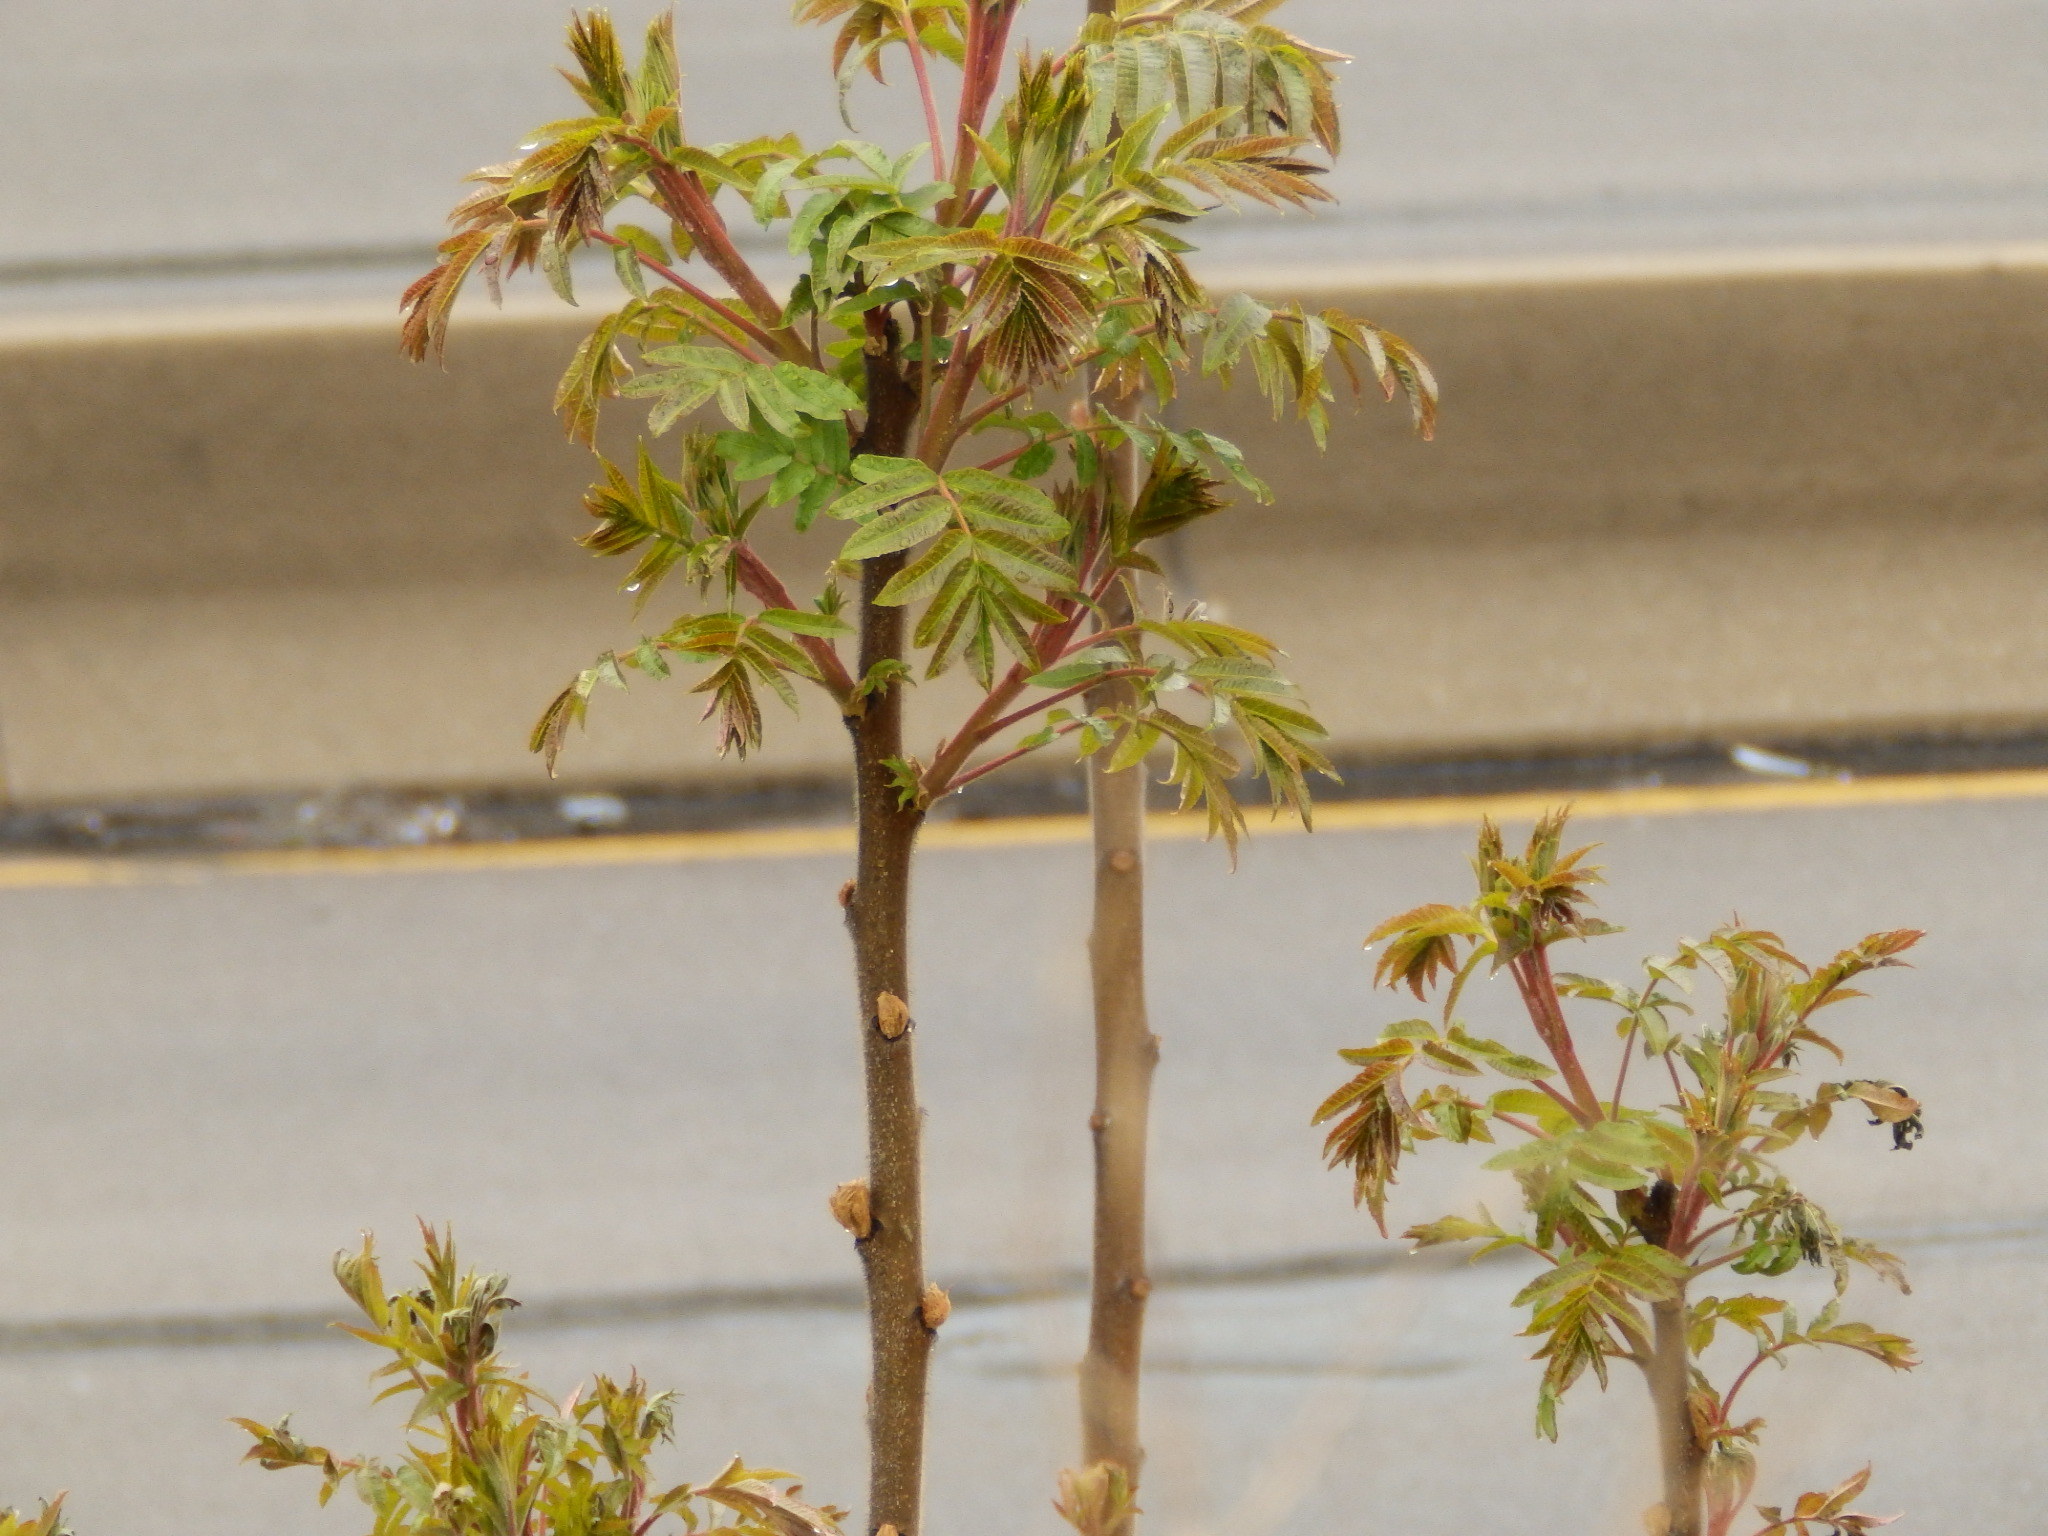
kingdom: Plantae
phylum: Tracheophyta
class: Magnoliopsida
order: Sapindales
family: Anacardiaceae
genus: Rhus
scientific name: Rhus typhina
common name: Staghorn sumac
